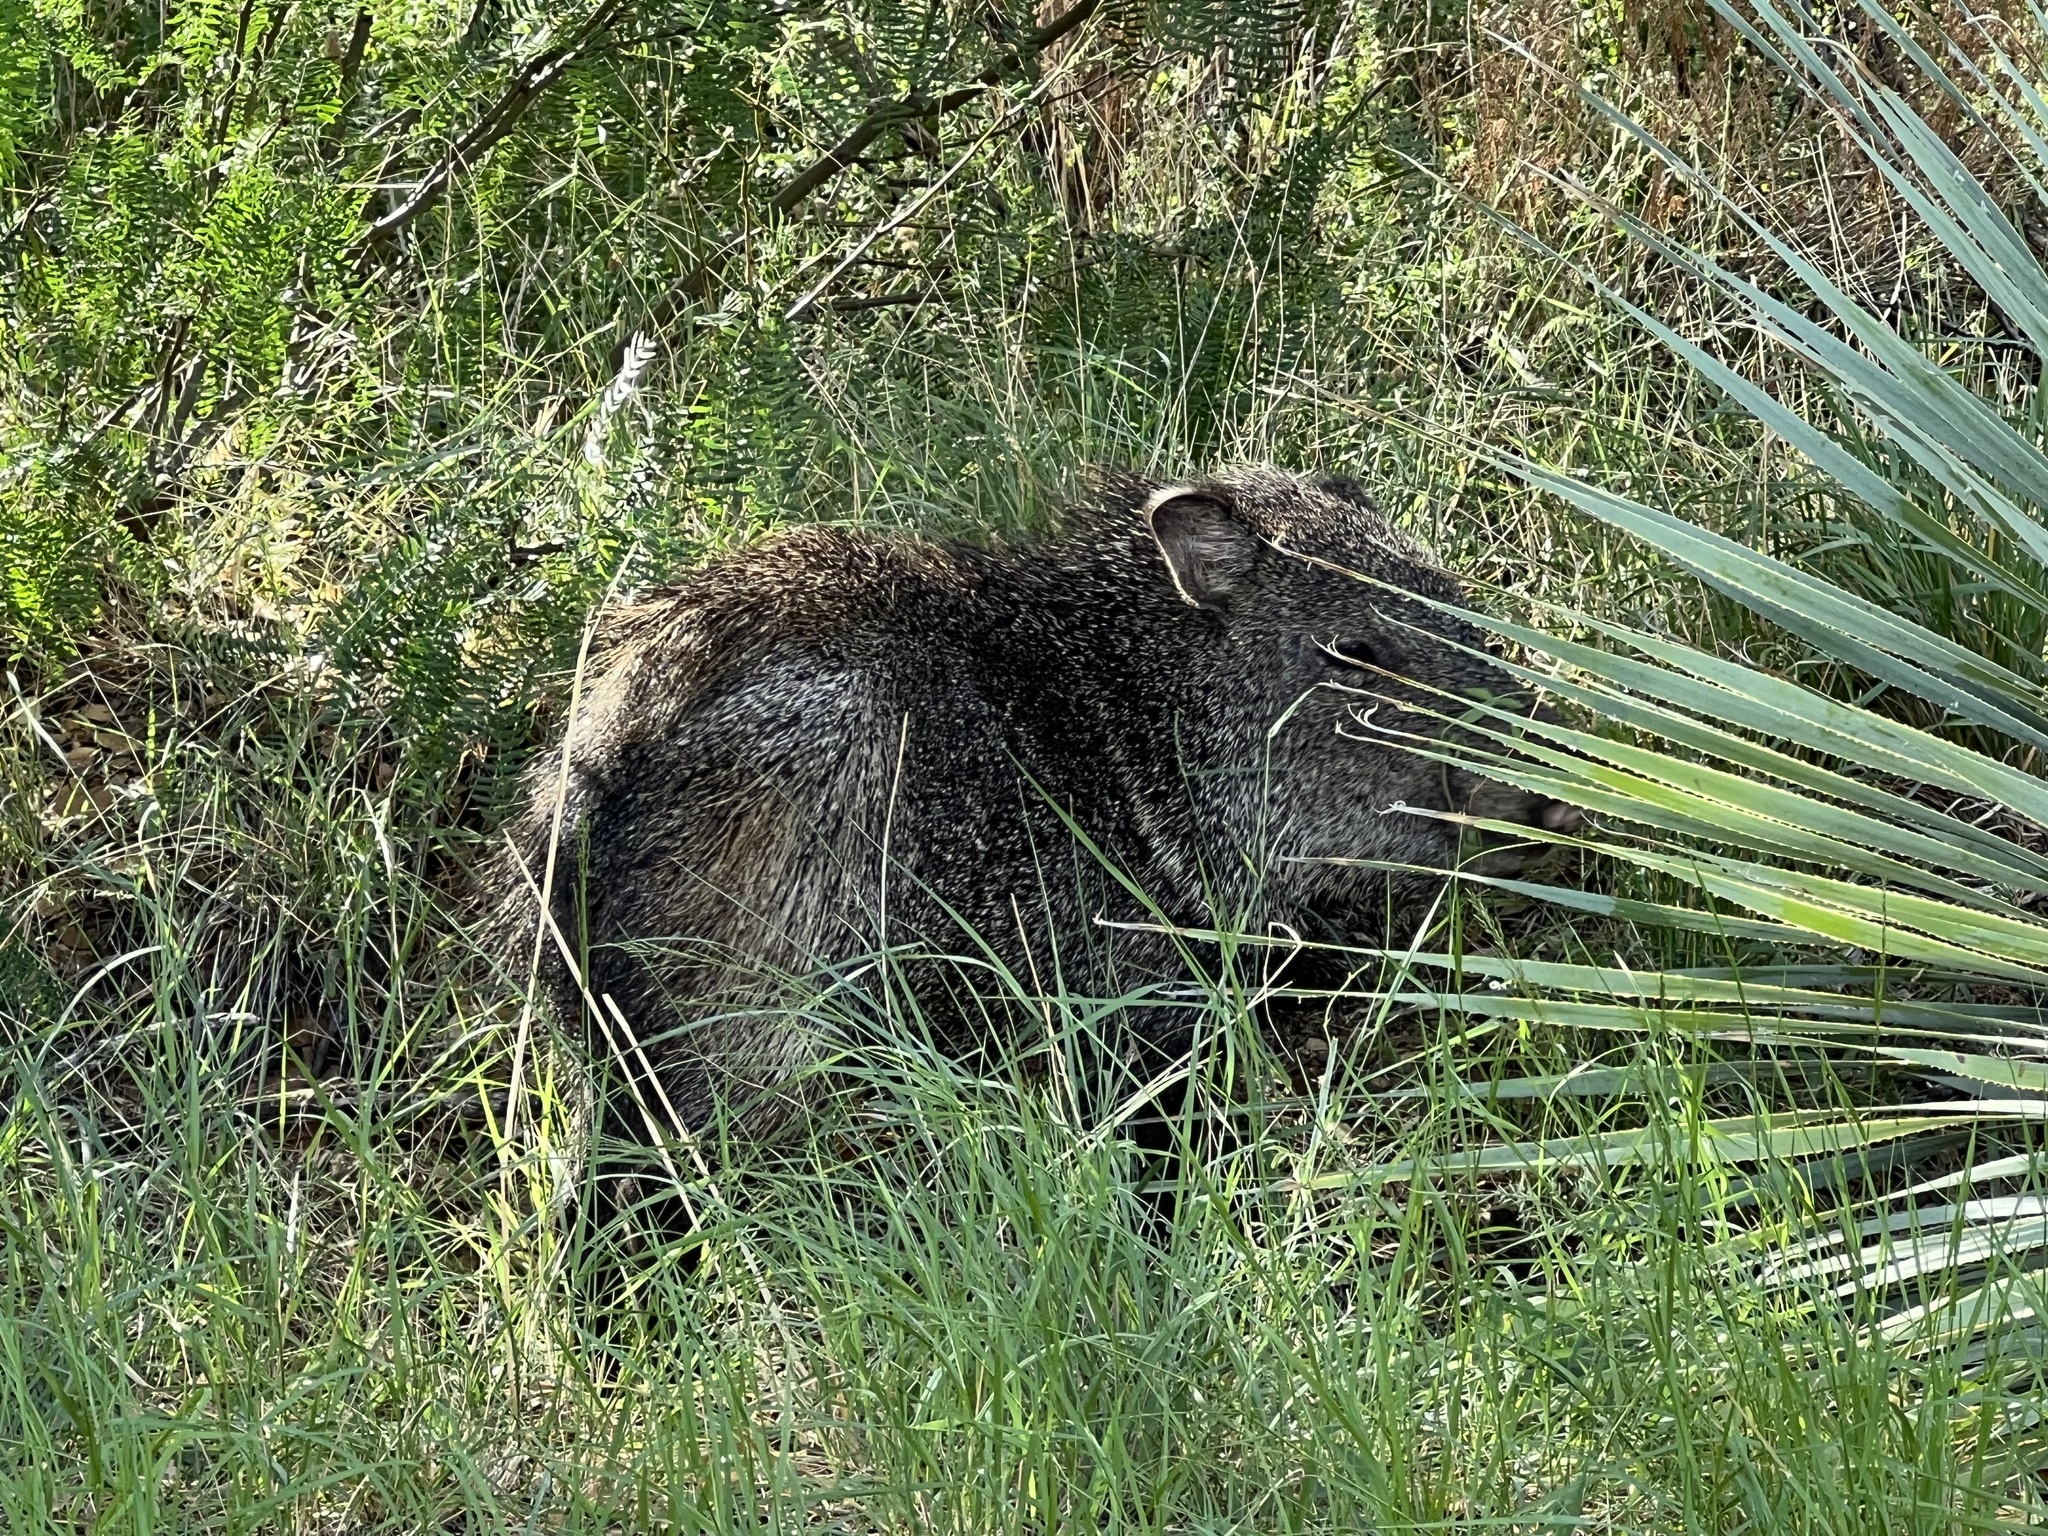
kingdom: Animalia
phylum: Chordata
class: Mammalia
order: Artiodactyla
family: Tayassuidae
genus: Pecari
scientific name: Pecari tajacu
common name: Collared peccary
